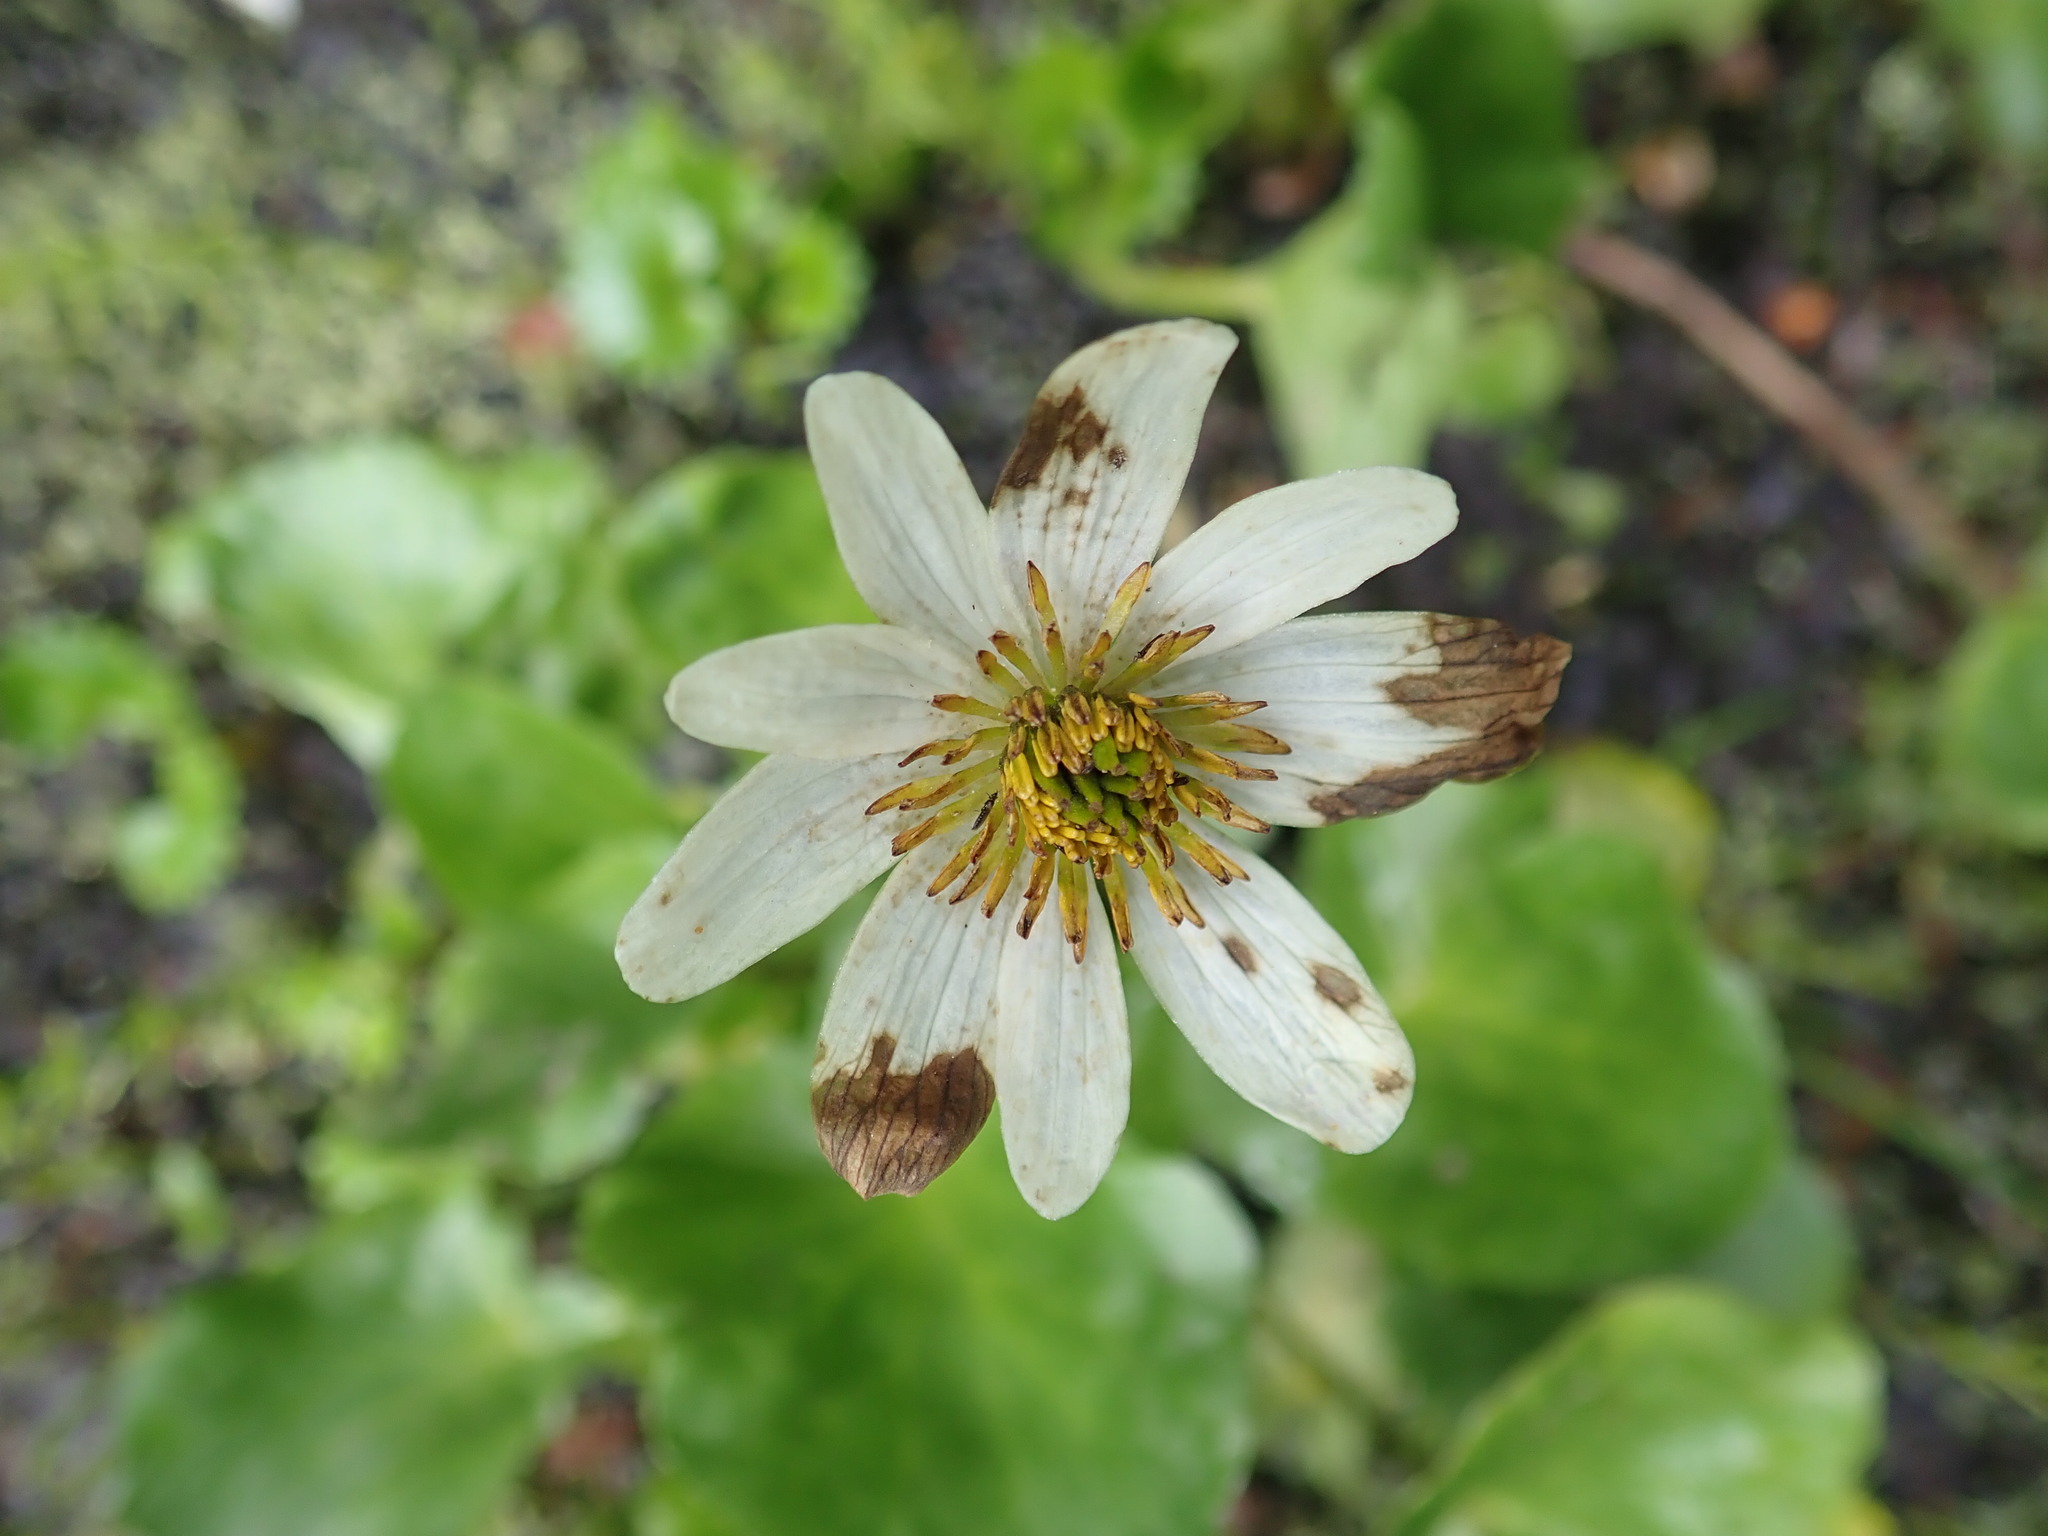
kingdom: Plantae
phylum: Tracheophyta
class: Magnoliopsida
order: Ranunculales
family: Ranunculaceae
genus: Caltha
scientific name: Caltha leptosepala
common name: Elkslip
